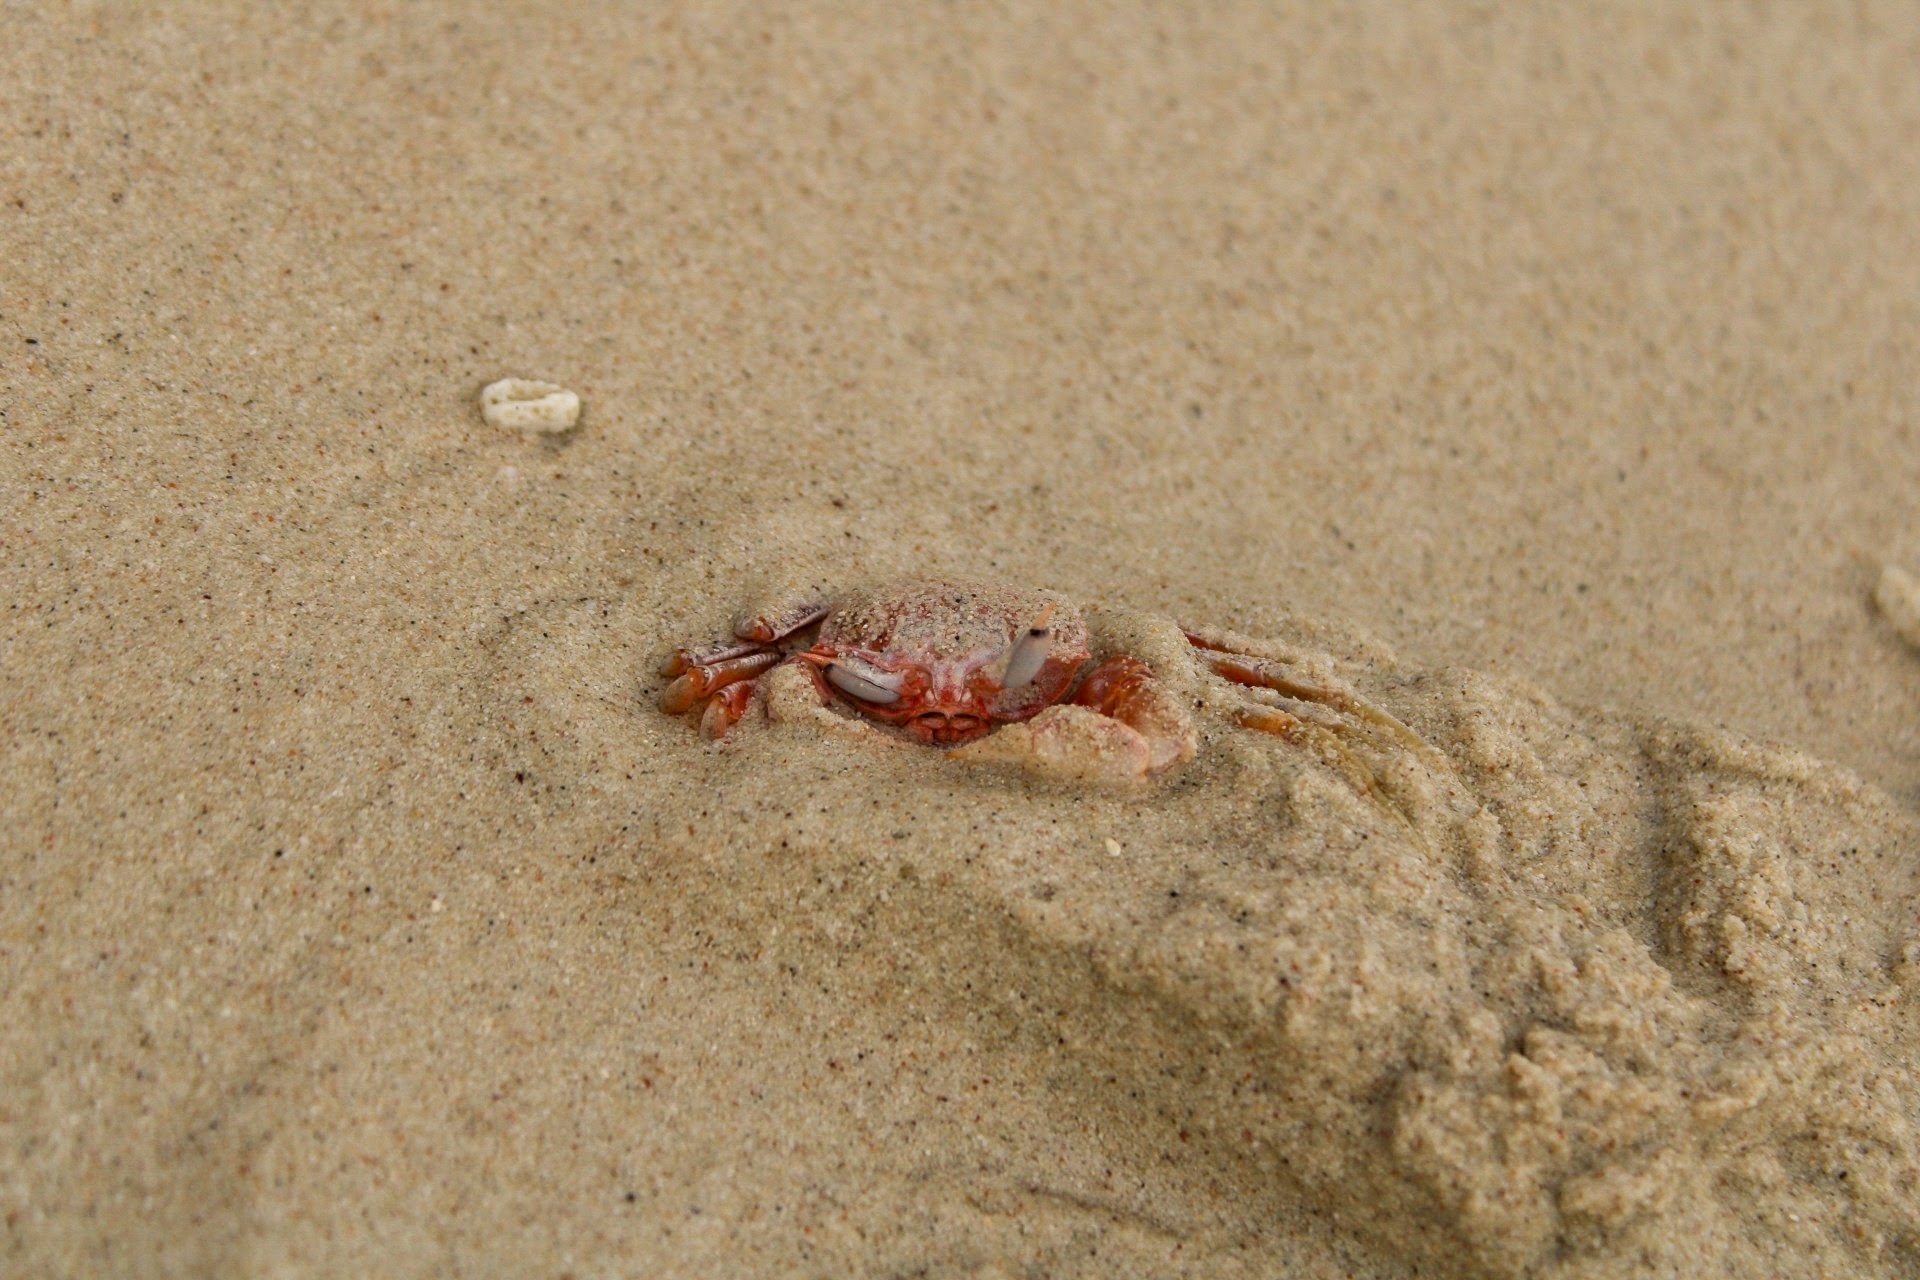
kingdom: Animalia
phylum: Arthropoda
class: Malacostraca
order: Decapoda
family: Ocypodidae
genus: Ocypode
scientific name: Ocypode gaudichaudii
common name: Pacific ghost crab
